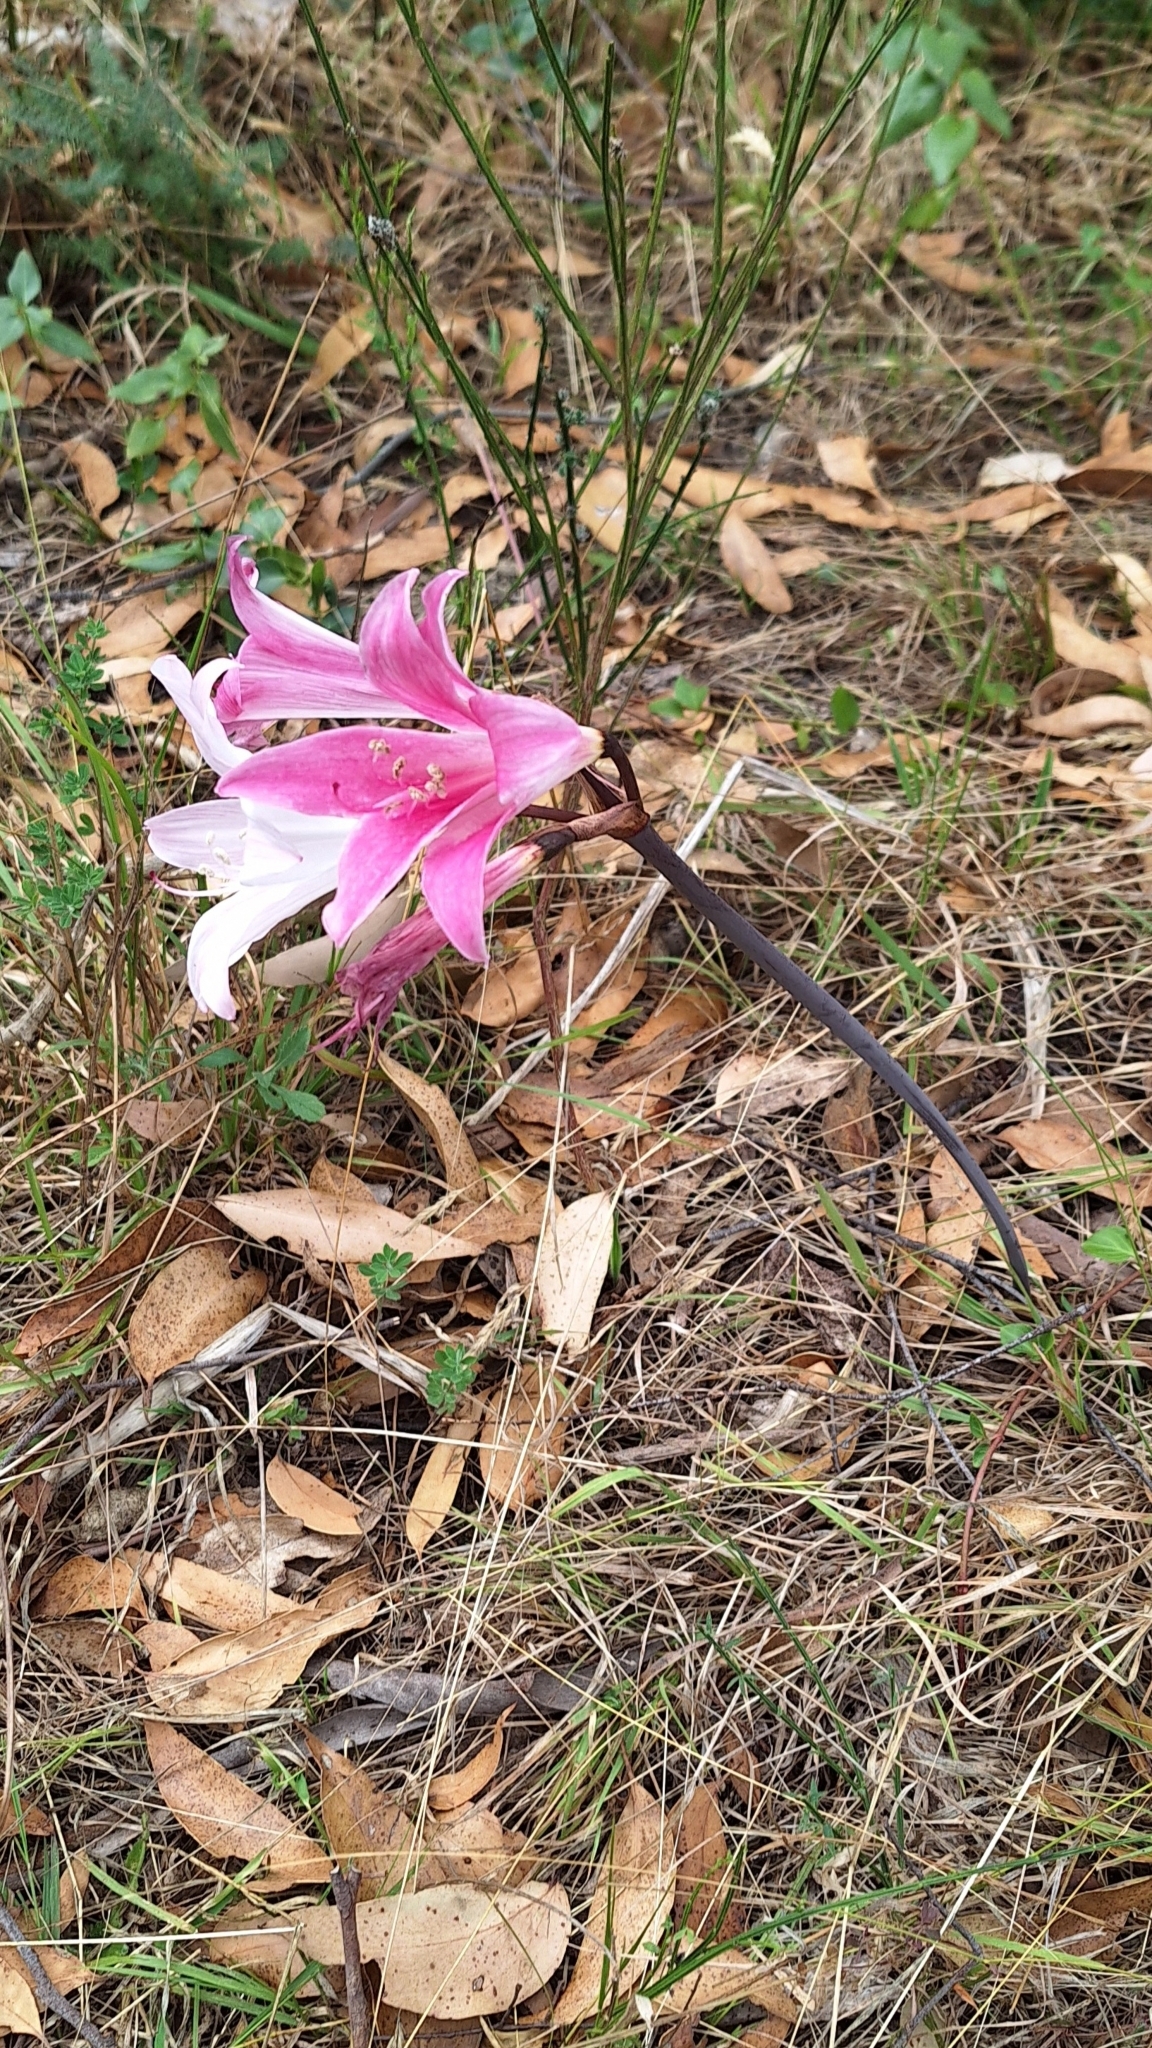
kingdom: Plantae
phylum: Tracheophyta
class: Liliopsida
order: Asparagales
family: Amaryllidaceae
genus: Amaryllis
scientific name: Amaryllis belladonna
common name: Jersey lily
